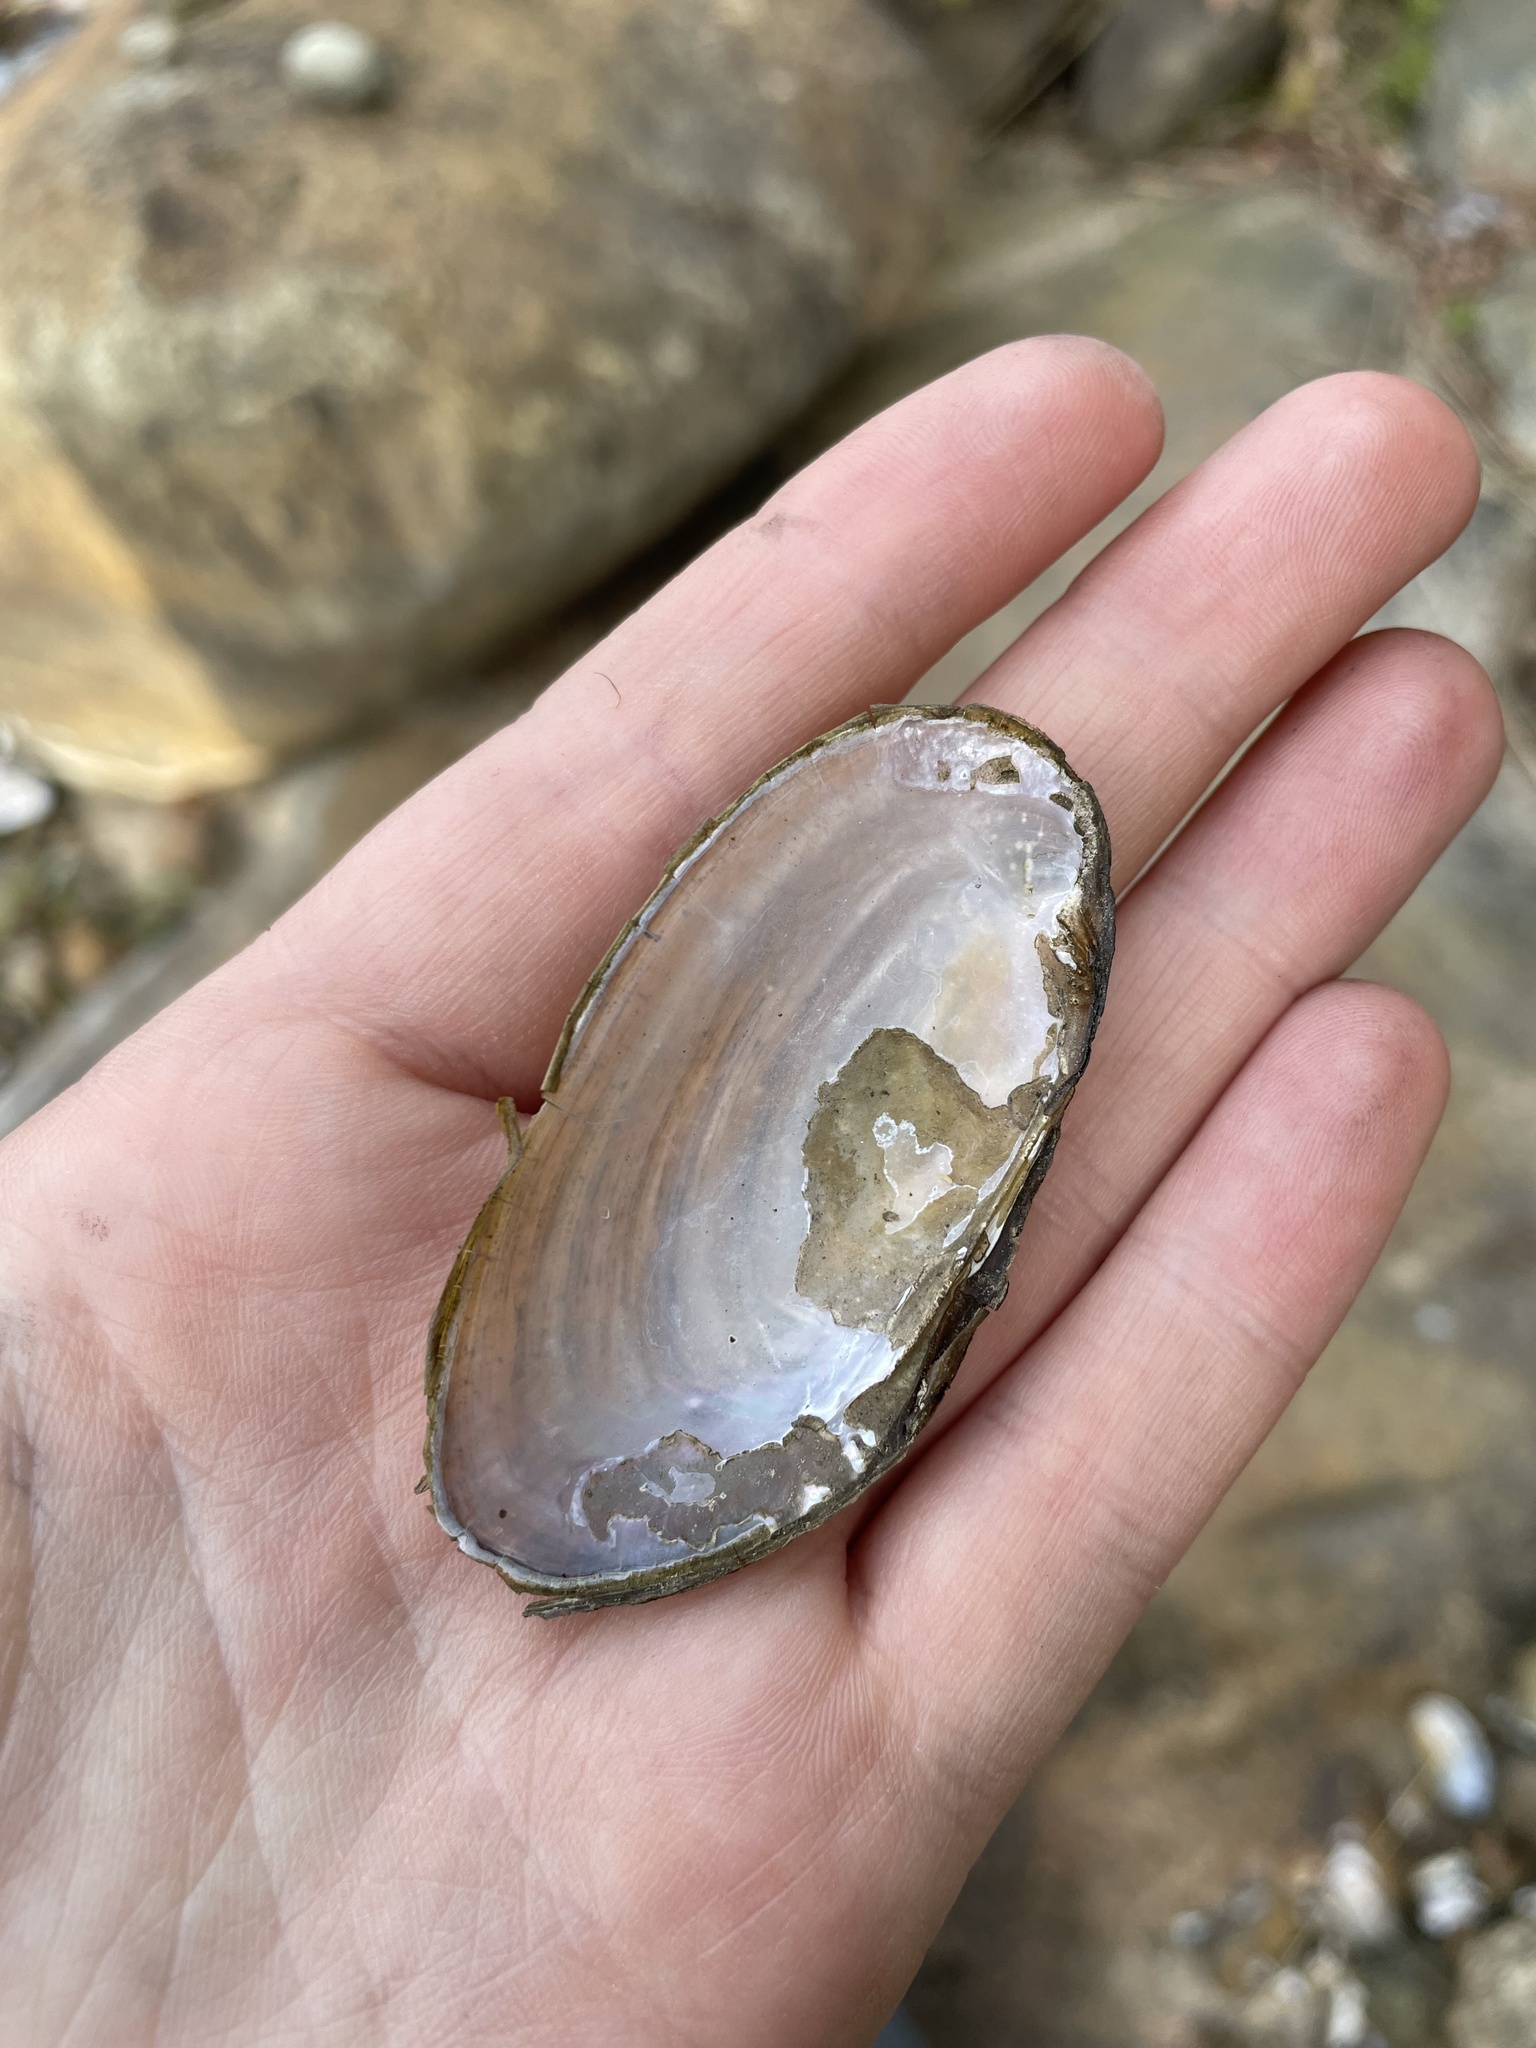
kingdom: Animalia
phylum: Mollusca
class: Bivalvia
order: Unionida
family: Unionidae
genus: Elliptio
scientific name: Elliptio complanata
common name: Eastern elliptio
